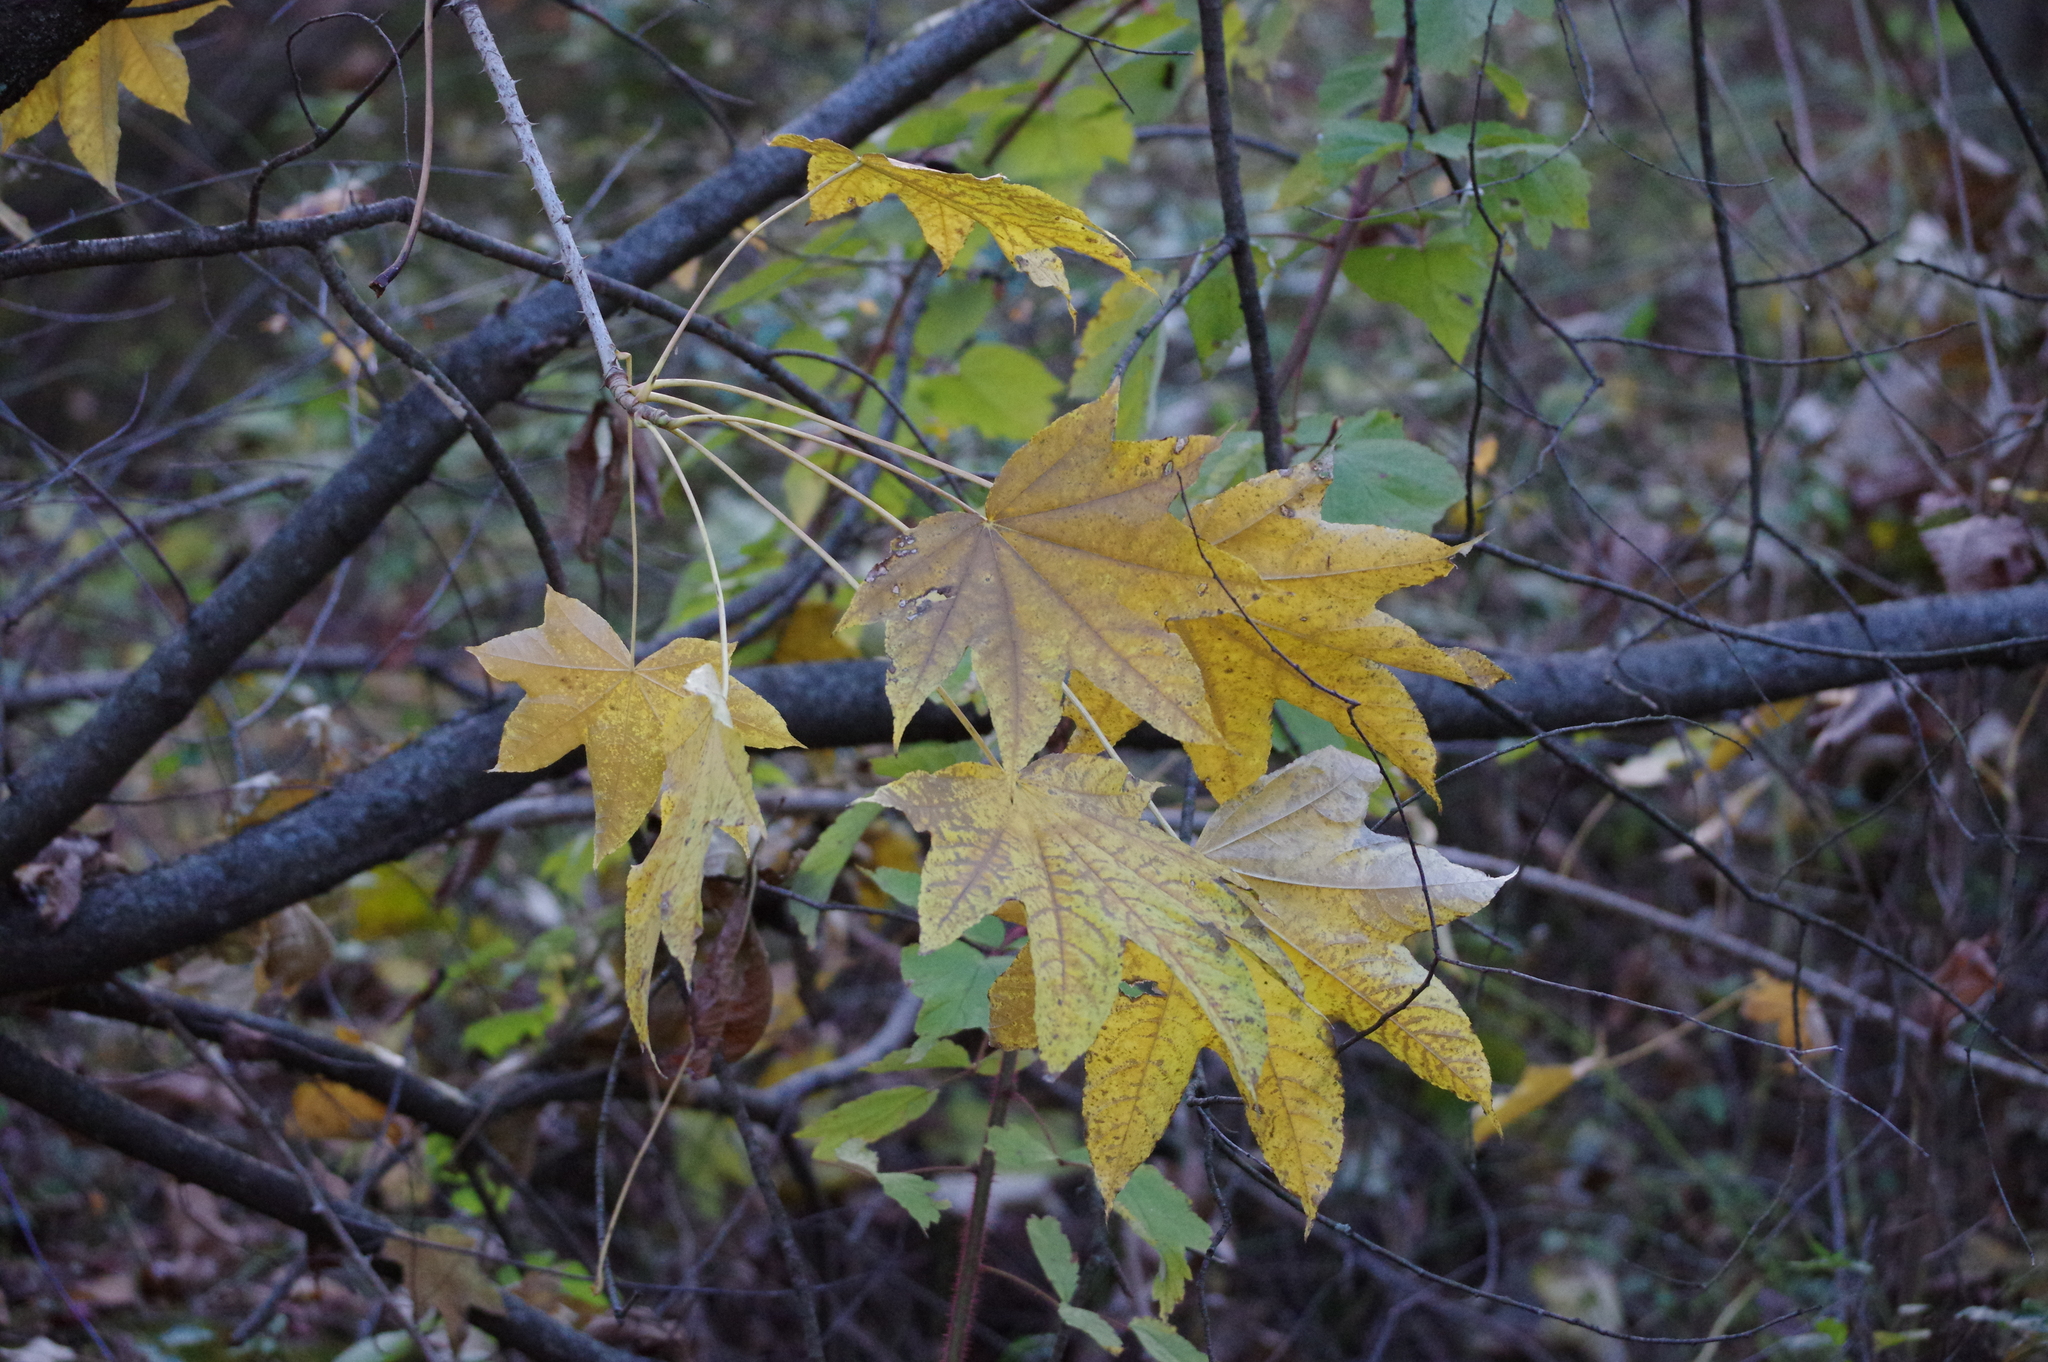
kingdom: Plantae
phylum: Tracheophyta
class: Magnoliopsida
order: Apiales
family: Araliaceae
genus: Kalopanax
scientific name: Kalopanax septemlobus
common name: Castor aralia
